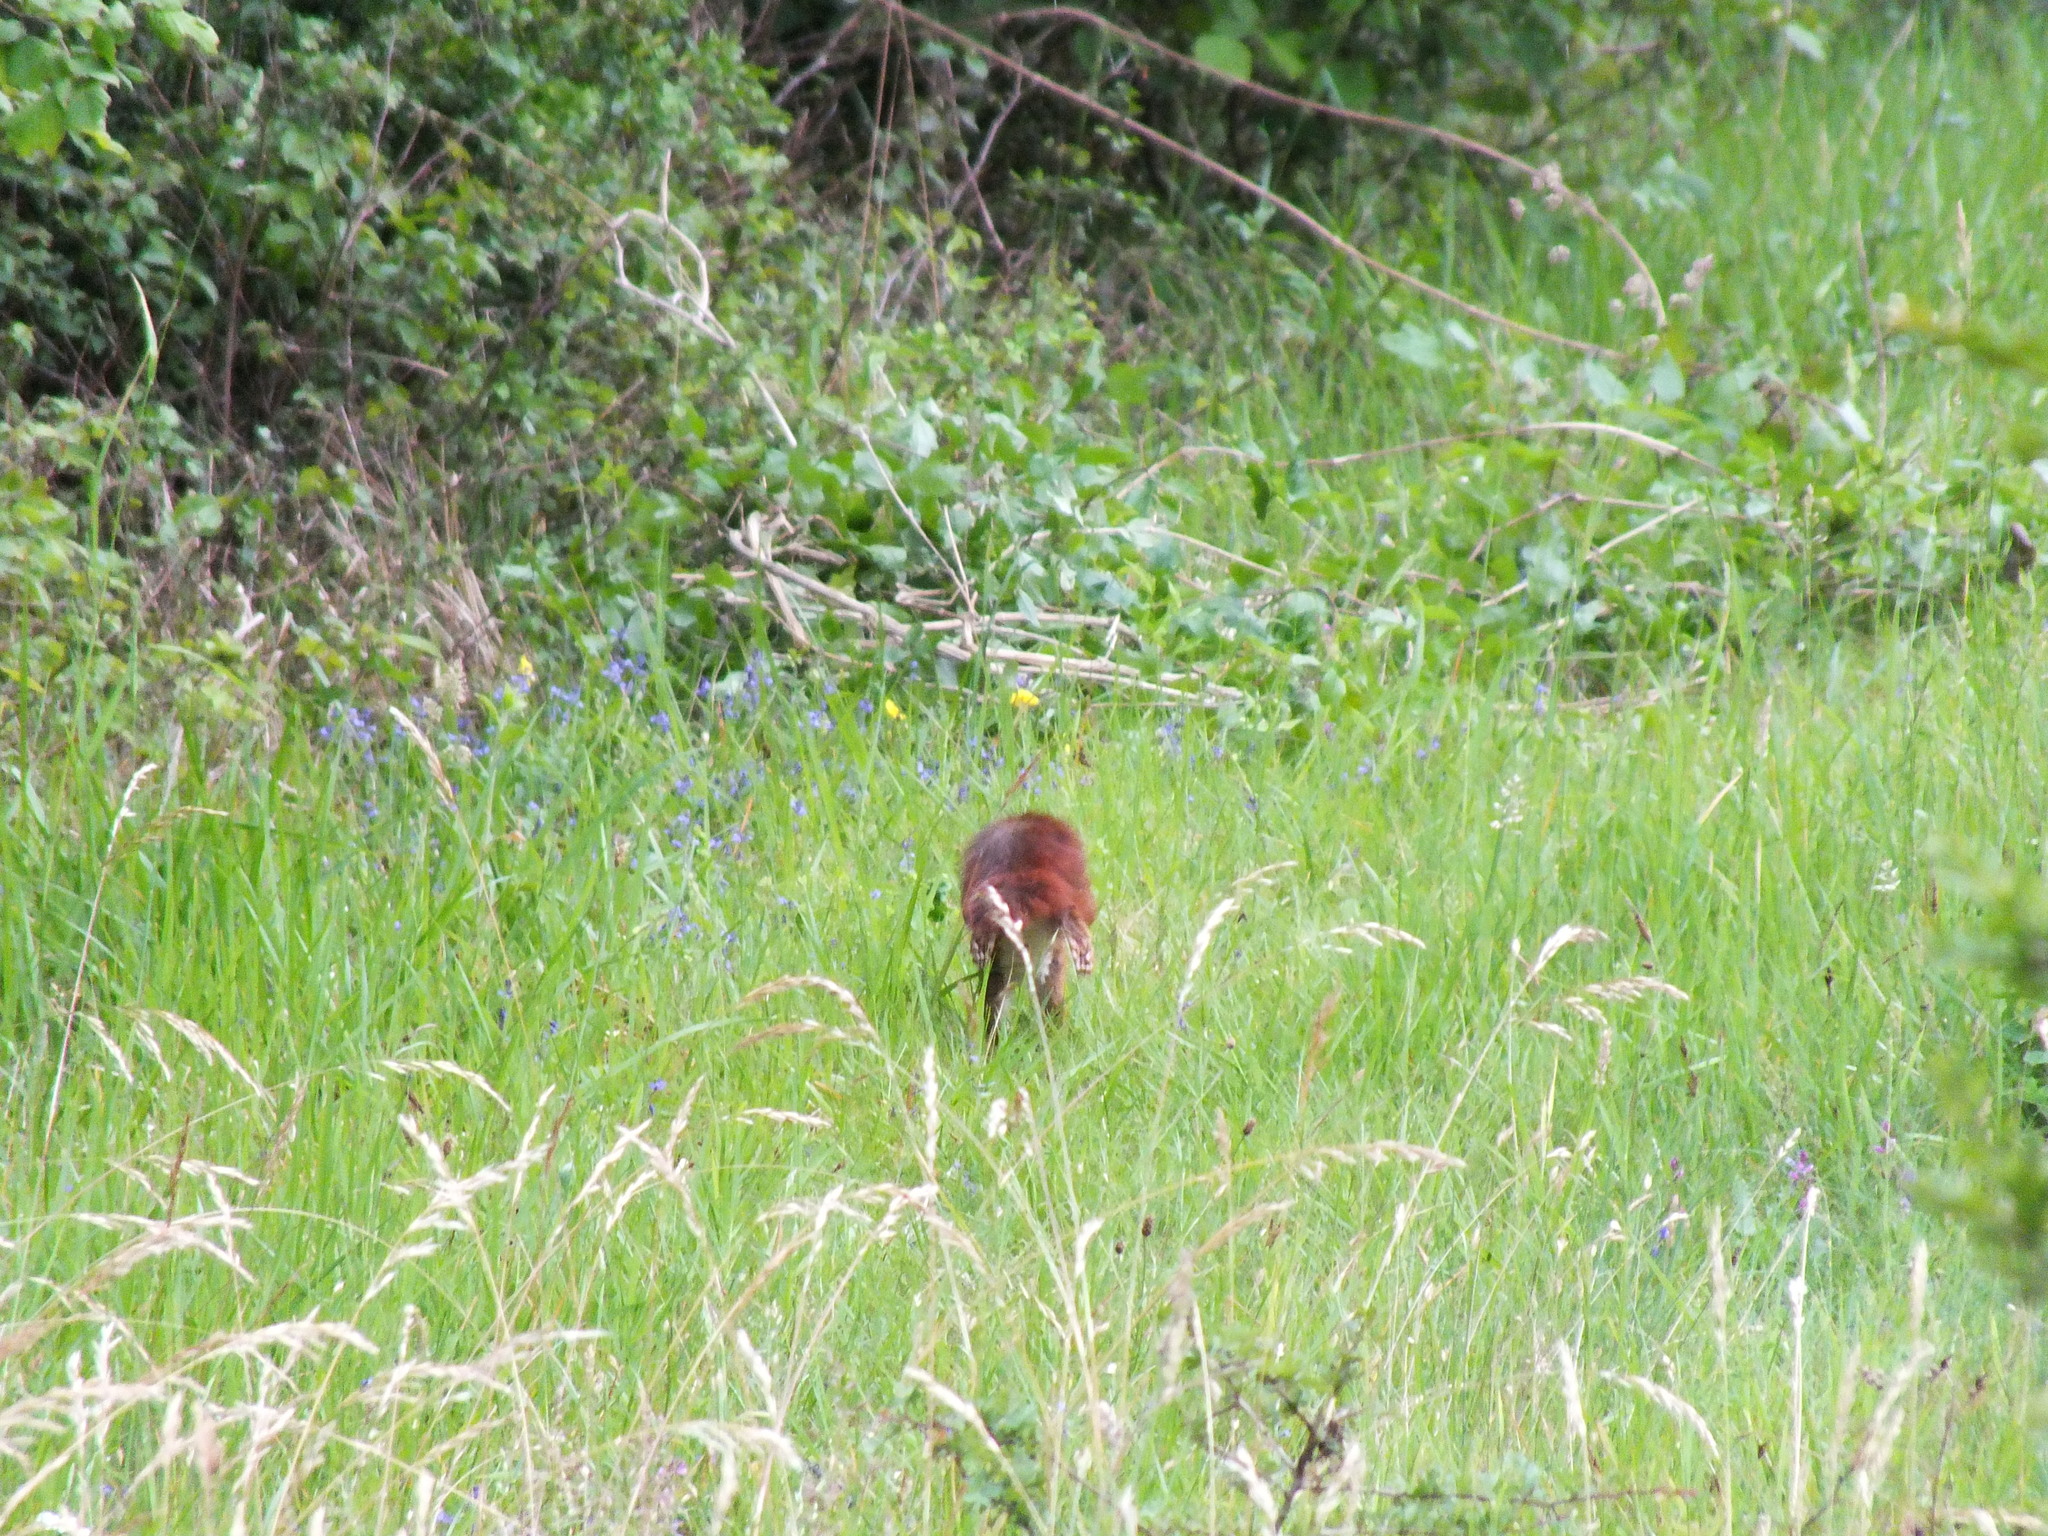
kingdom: Animalia
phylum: Chordata
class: Mammalia
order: Rodentia
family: Sciuridae
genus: Sciurus
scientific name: Sciurus vulgaris
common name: Eurasian red squirrel
